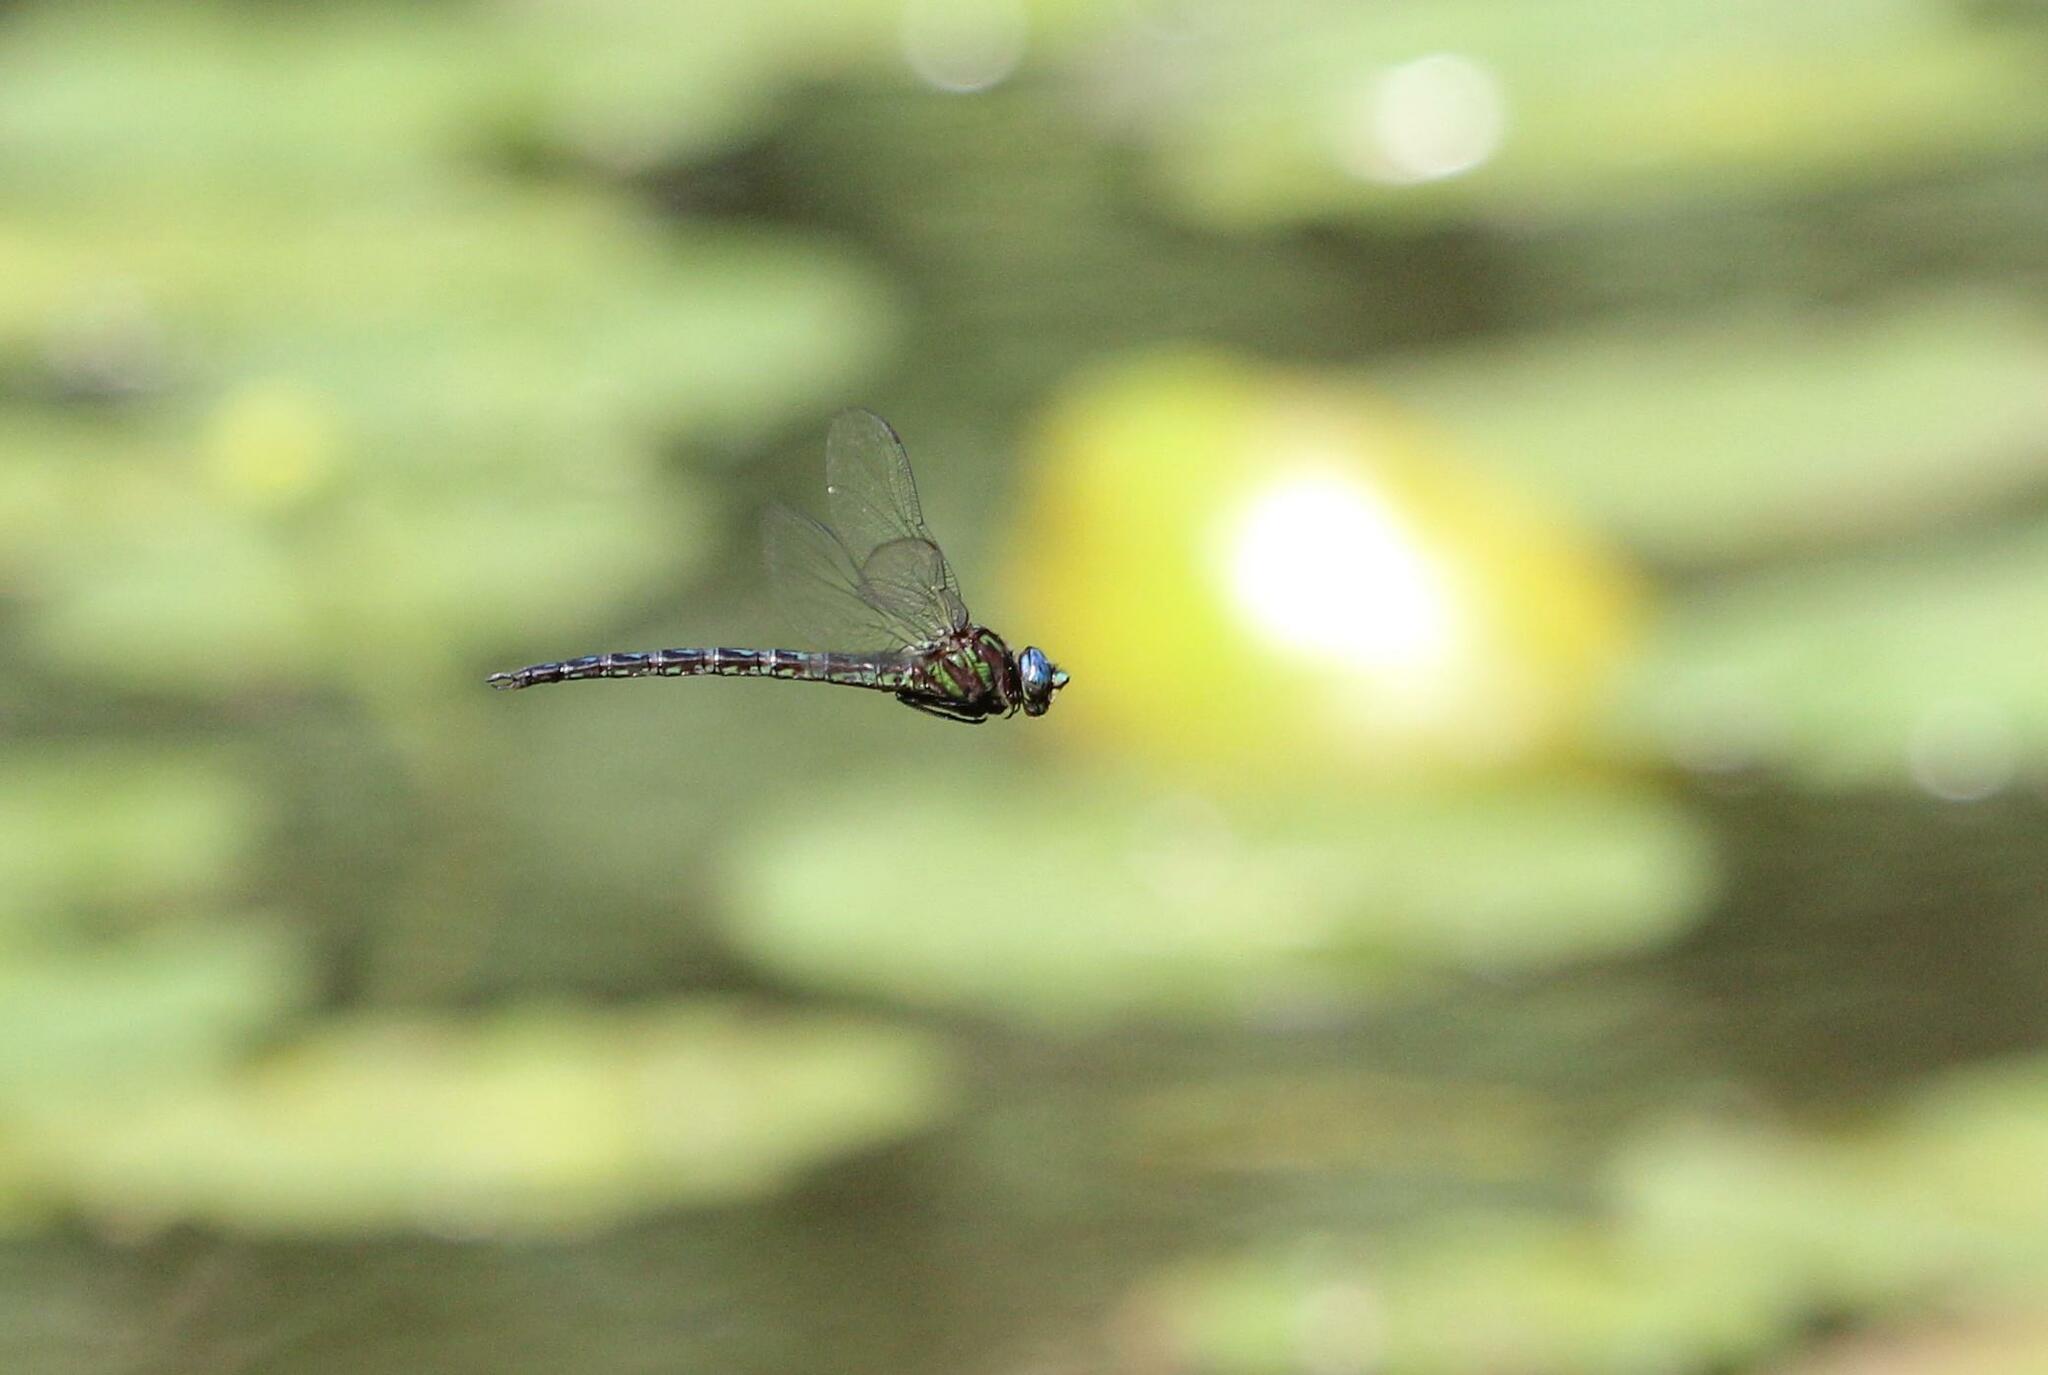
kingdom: Animalia
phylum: Arthropoda
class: Insecta
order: Odonata
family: Aeshnidae
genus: Nasiaeschna
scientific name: Nasiaeschna pentacantha
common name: Cyrano darner
